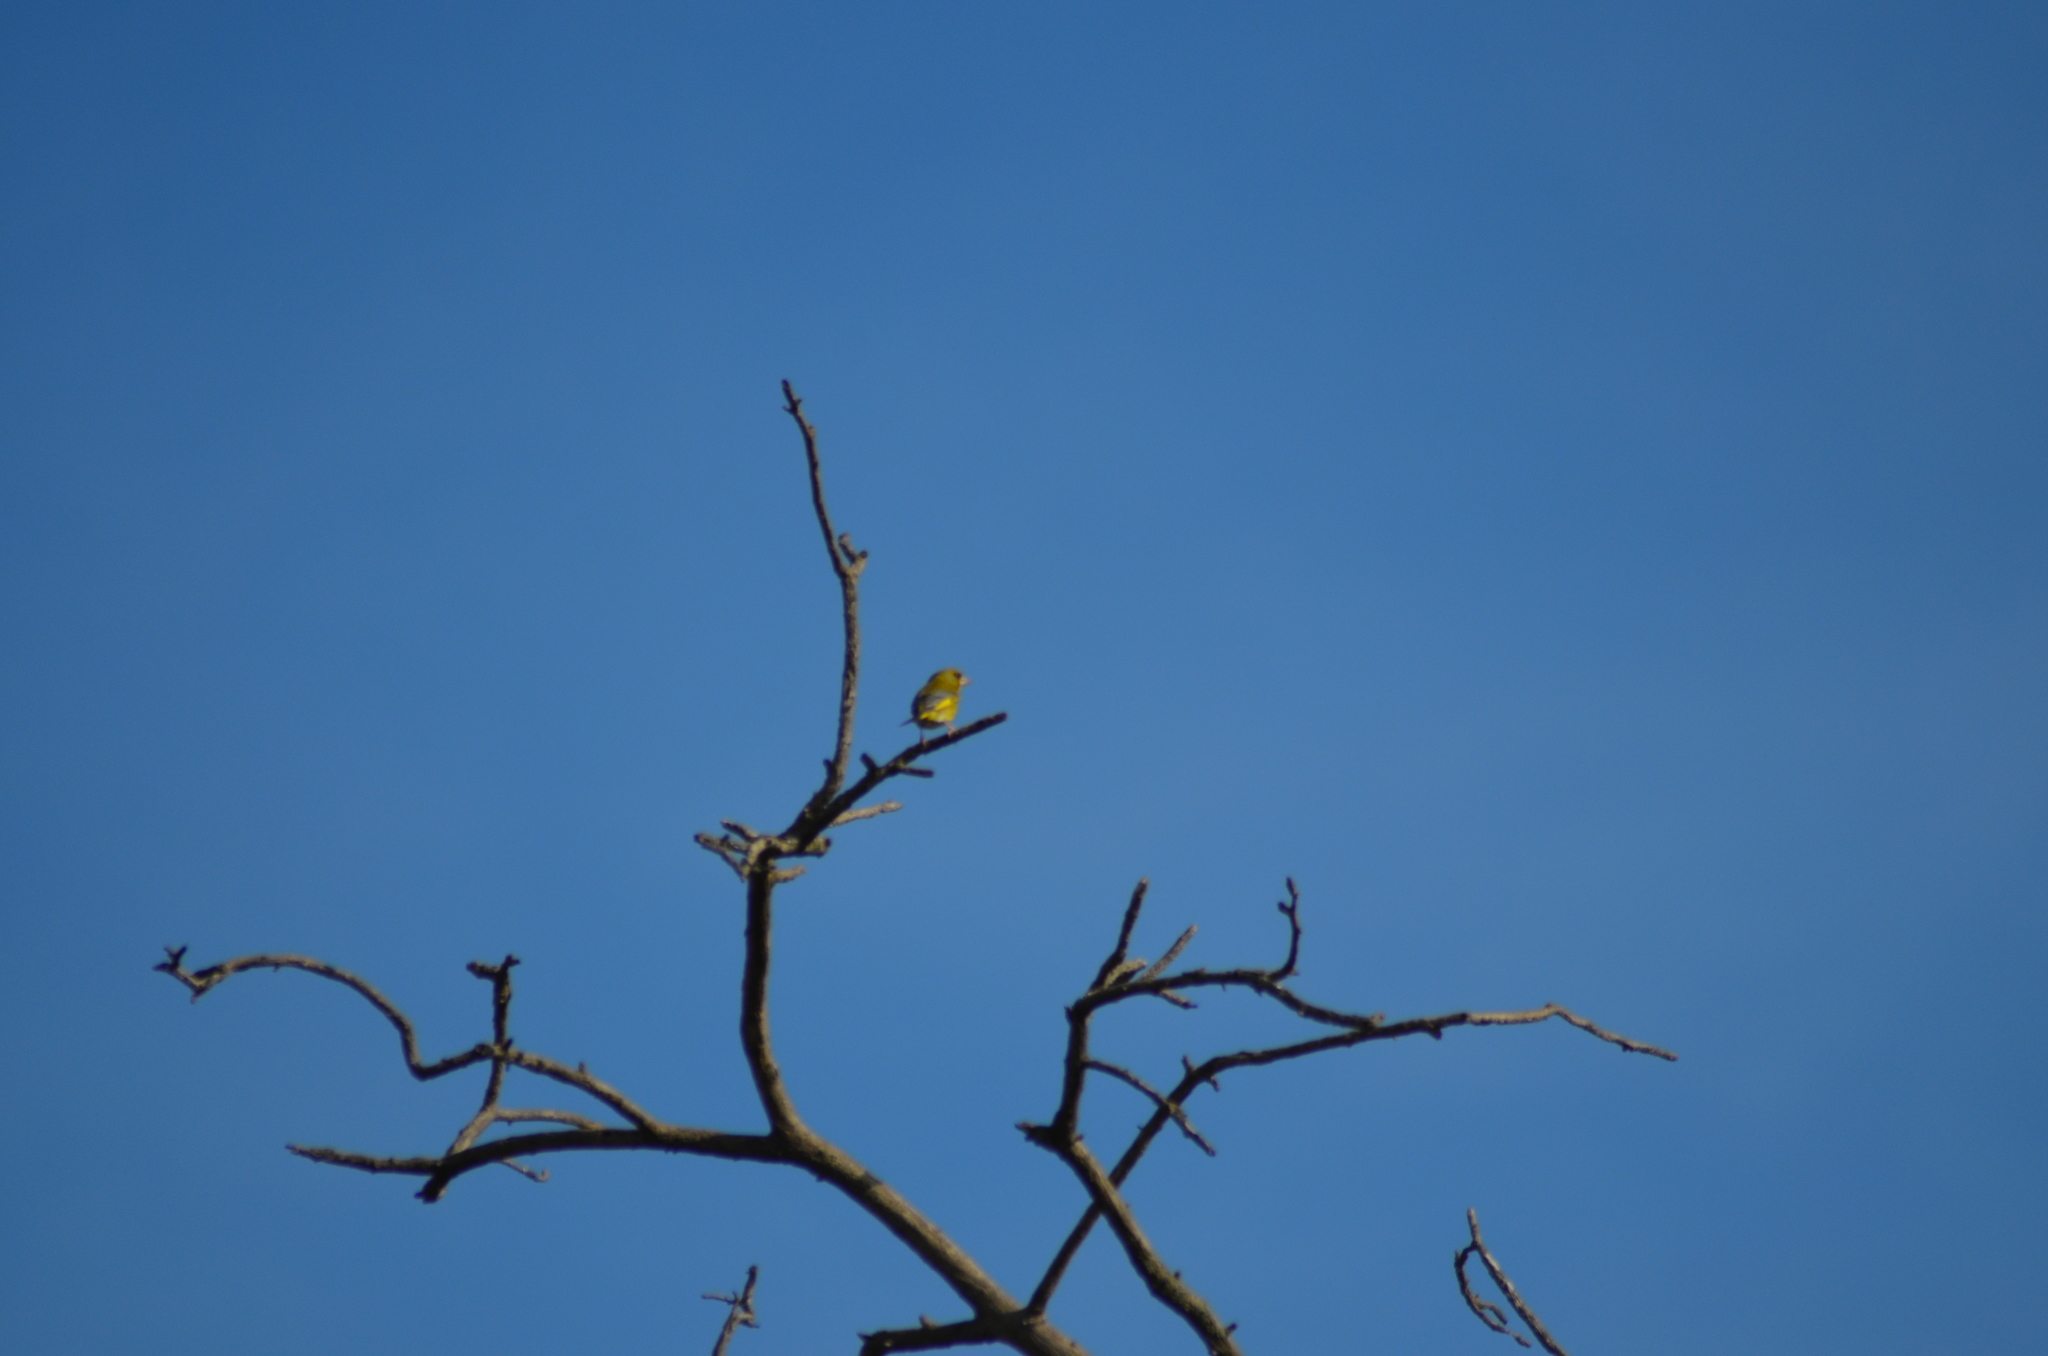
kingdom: Plantae
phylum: Tracheophyta
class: Liliopsida
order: Poales
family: Poaceae
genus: Chloris
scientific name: Chloris chloris
